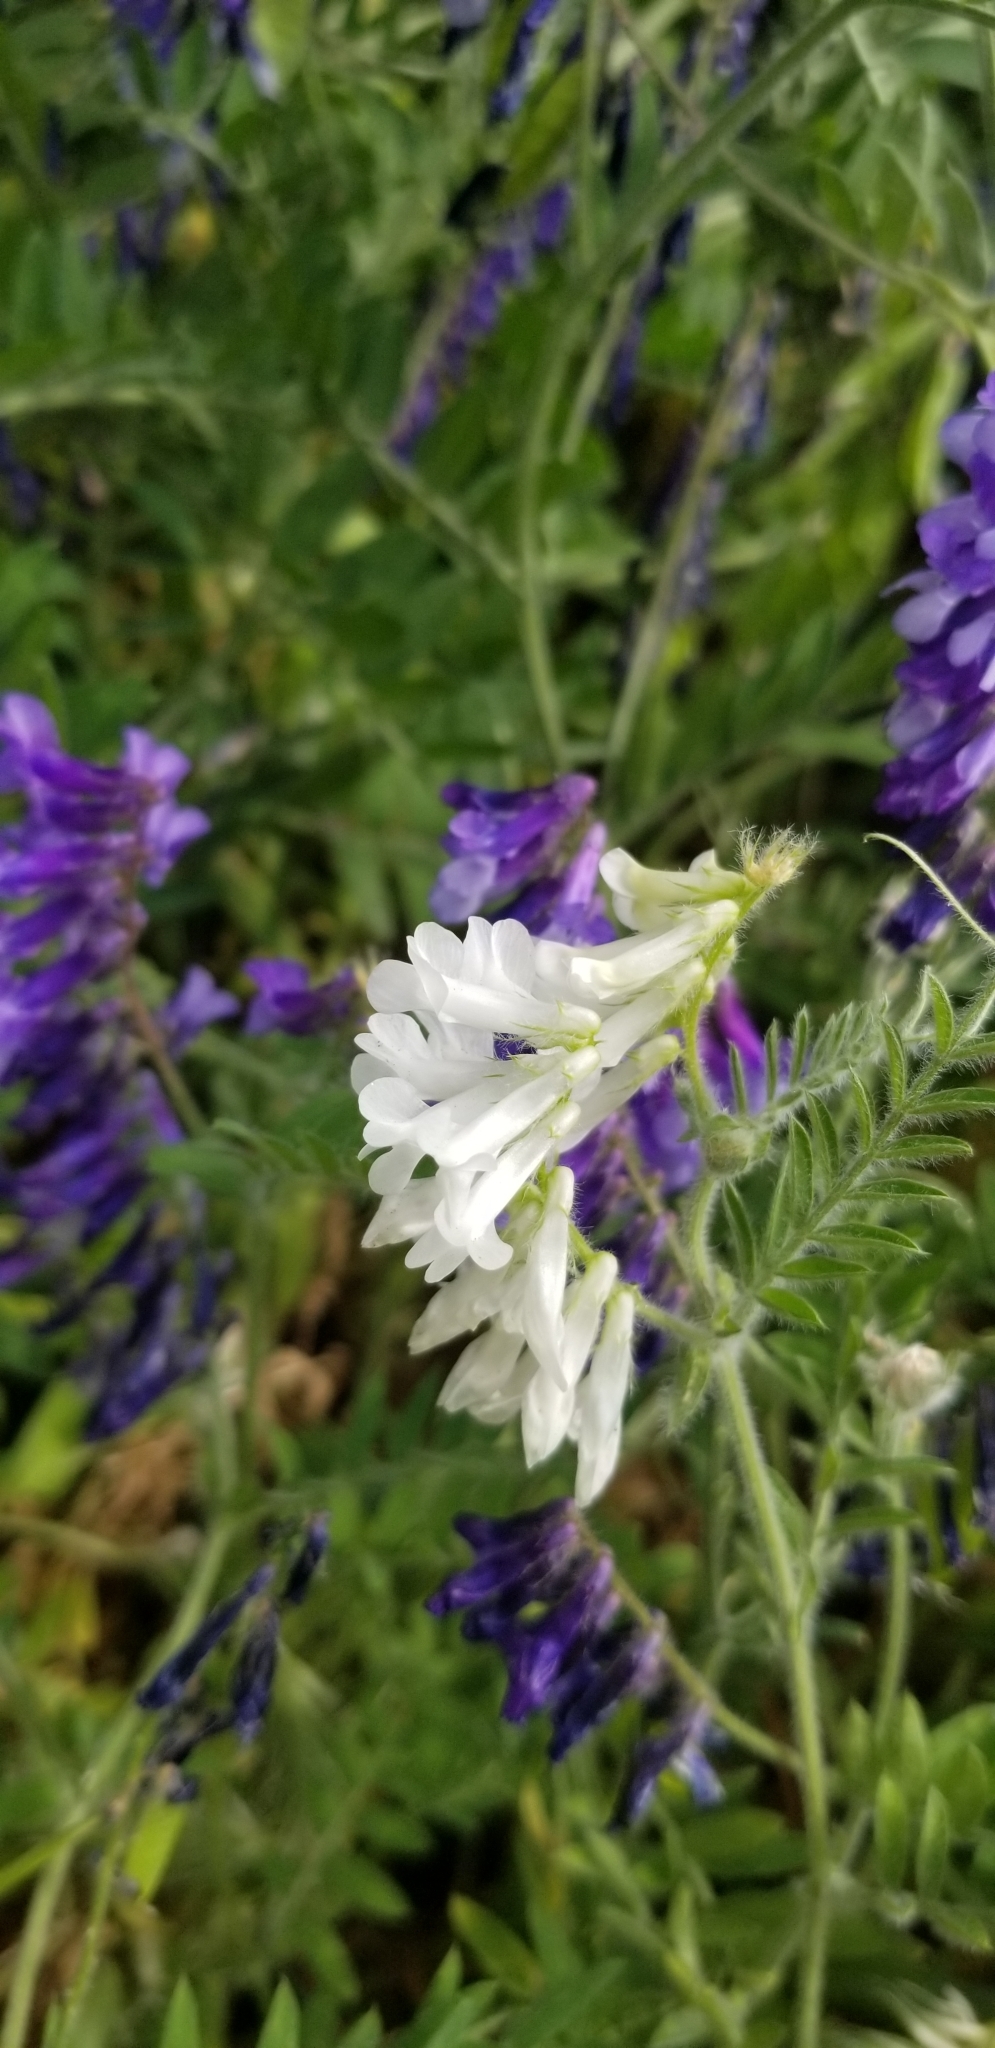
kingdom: Plantae
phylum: Tracheophyta
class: Magnoliopsida
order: Fabales
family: Fabaceae
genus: Vicia
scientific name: Vicia villosa
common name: Fodder vetch
